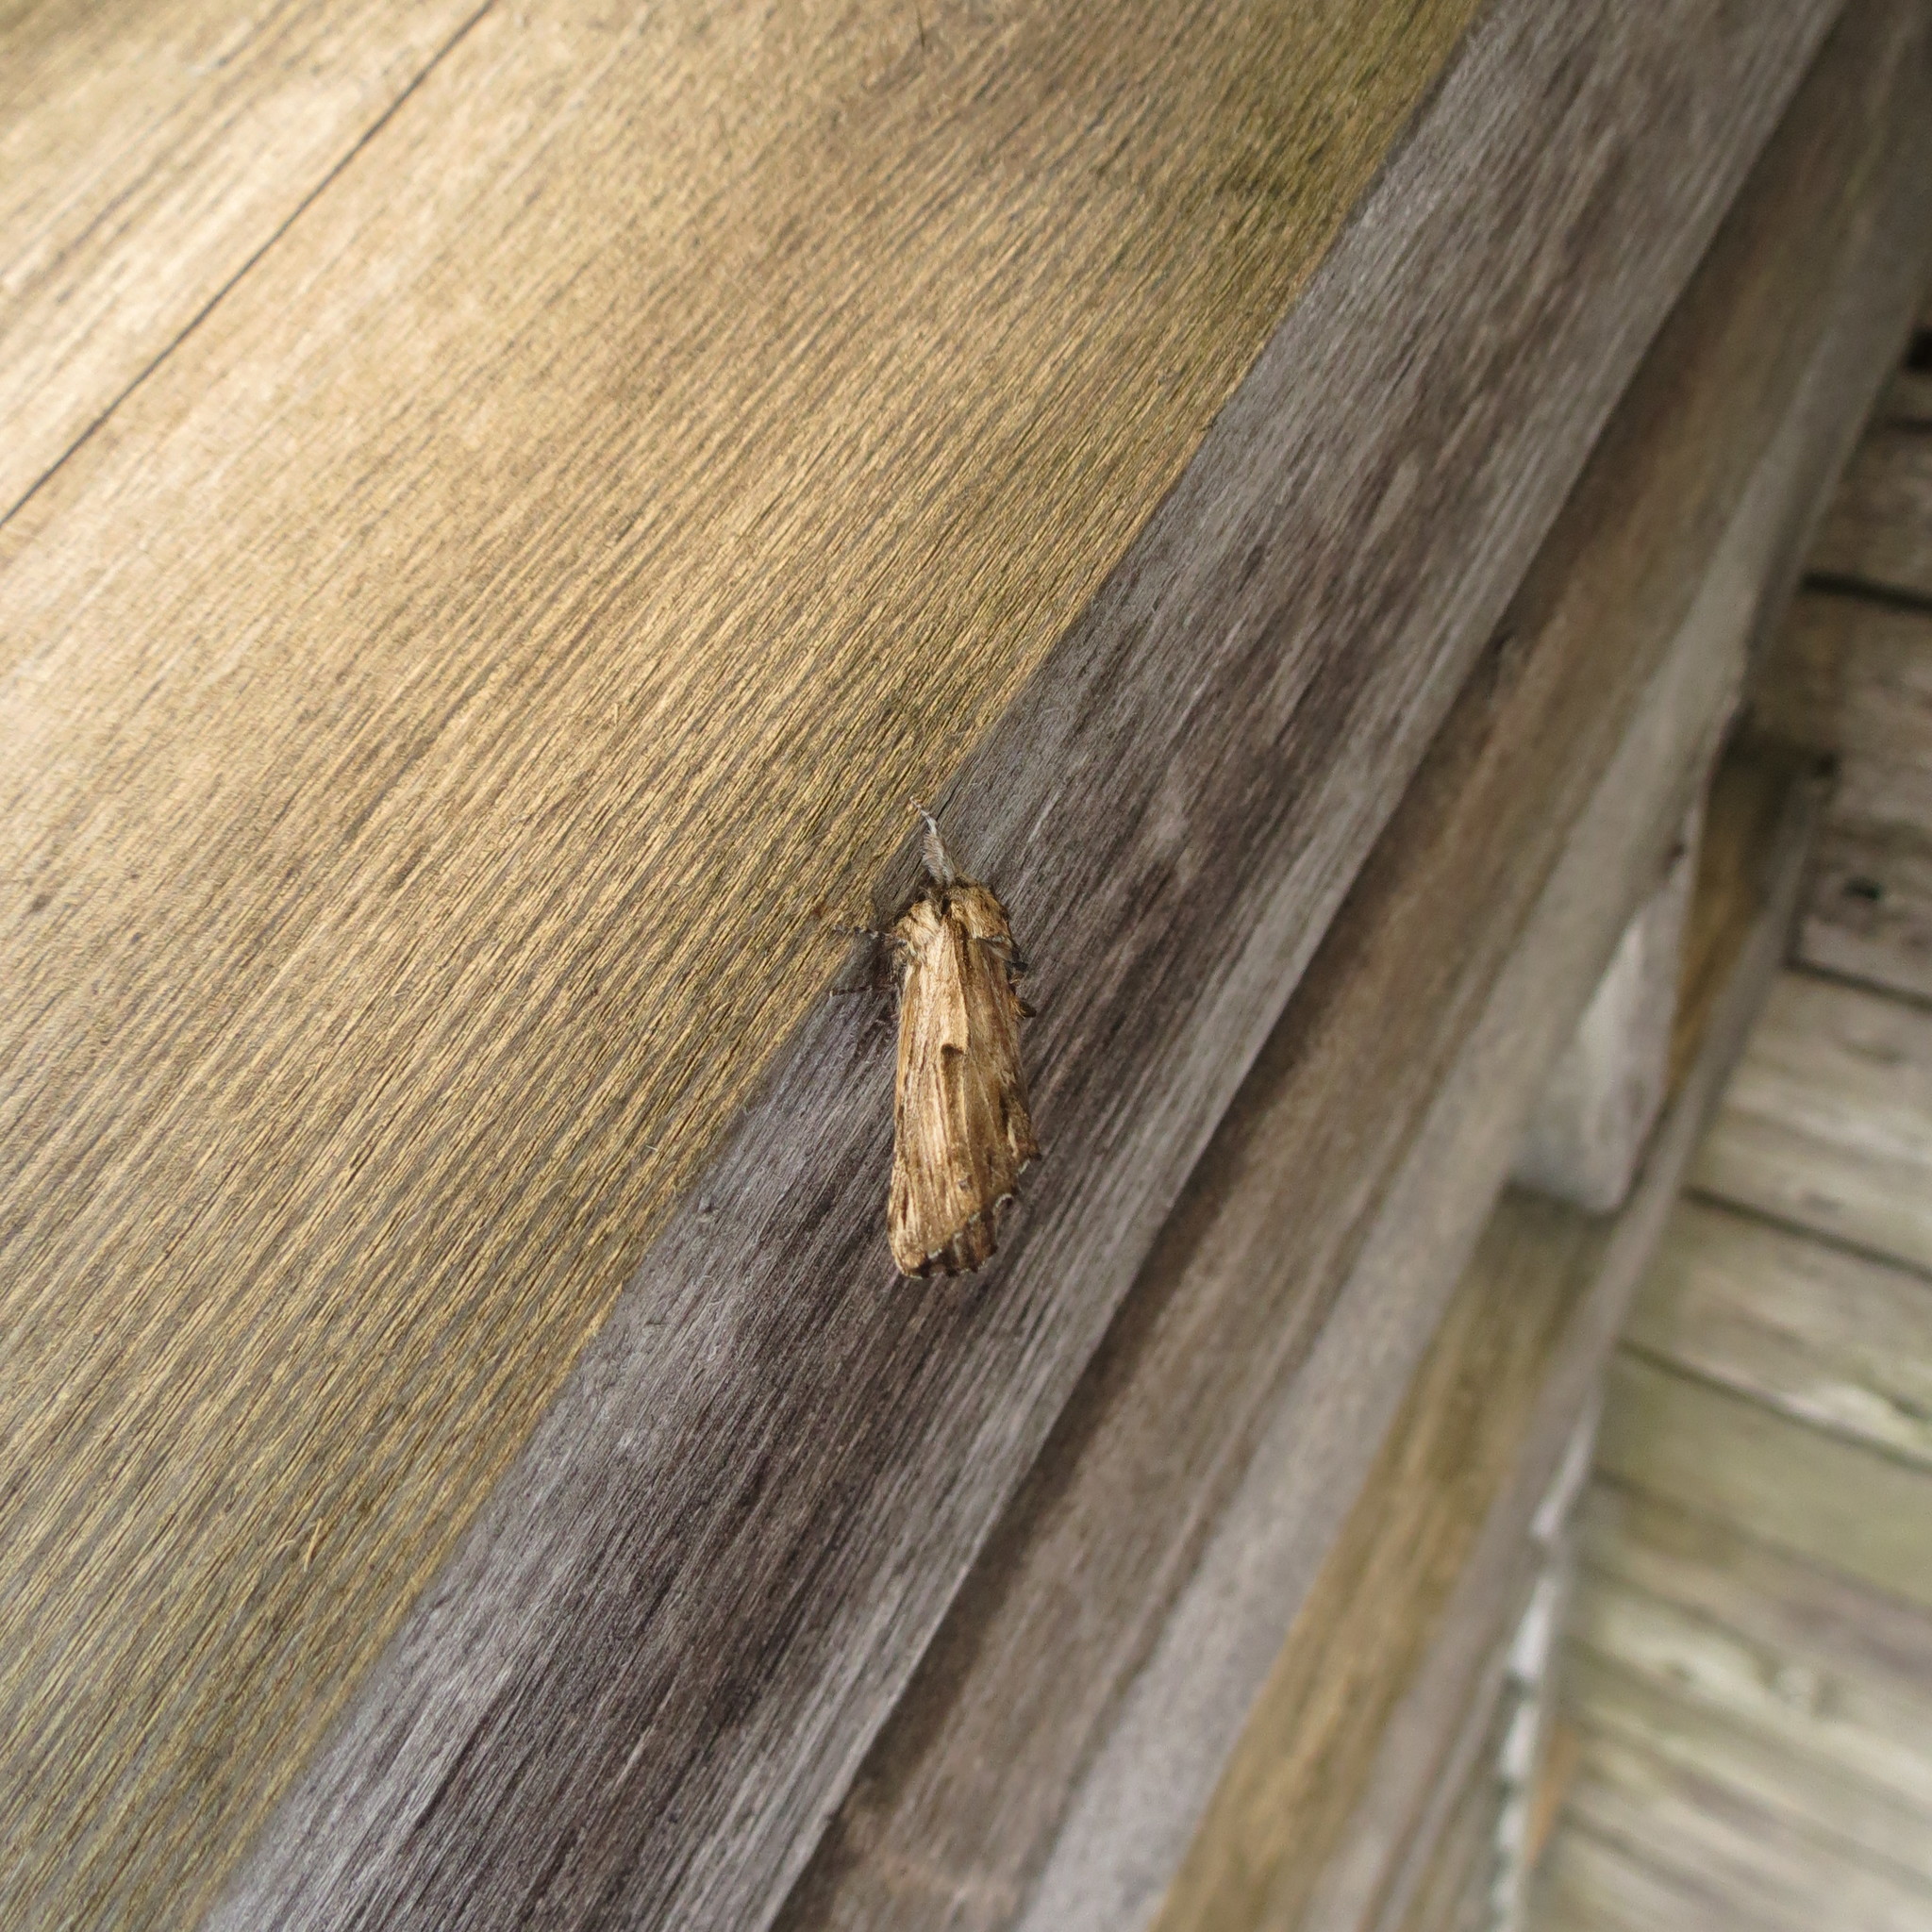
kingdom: Animalia
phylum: Arthropoda
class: Insecta
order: Lepidoptera
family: Notodontidae
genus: Oligocentria
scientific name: Oligocentria Ianassa lignicolor
